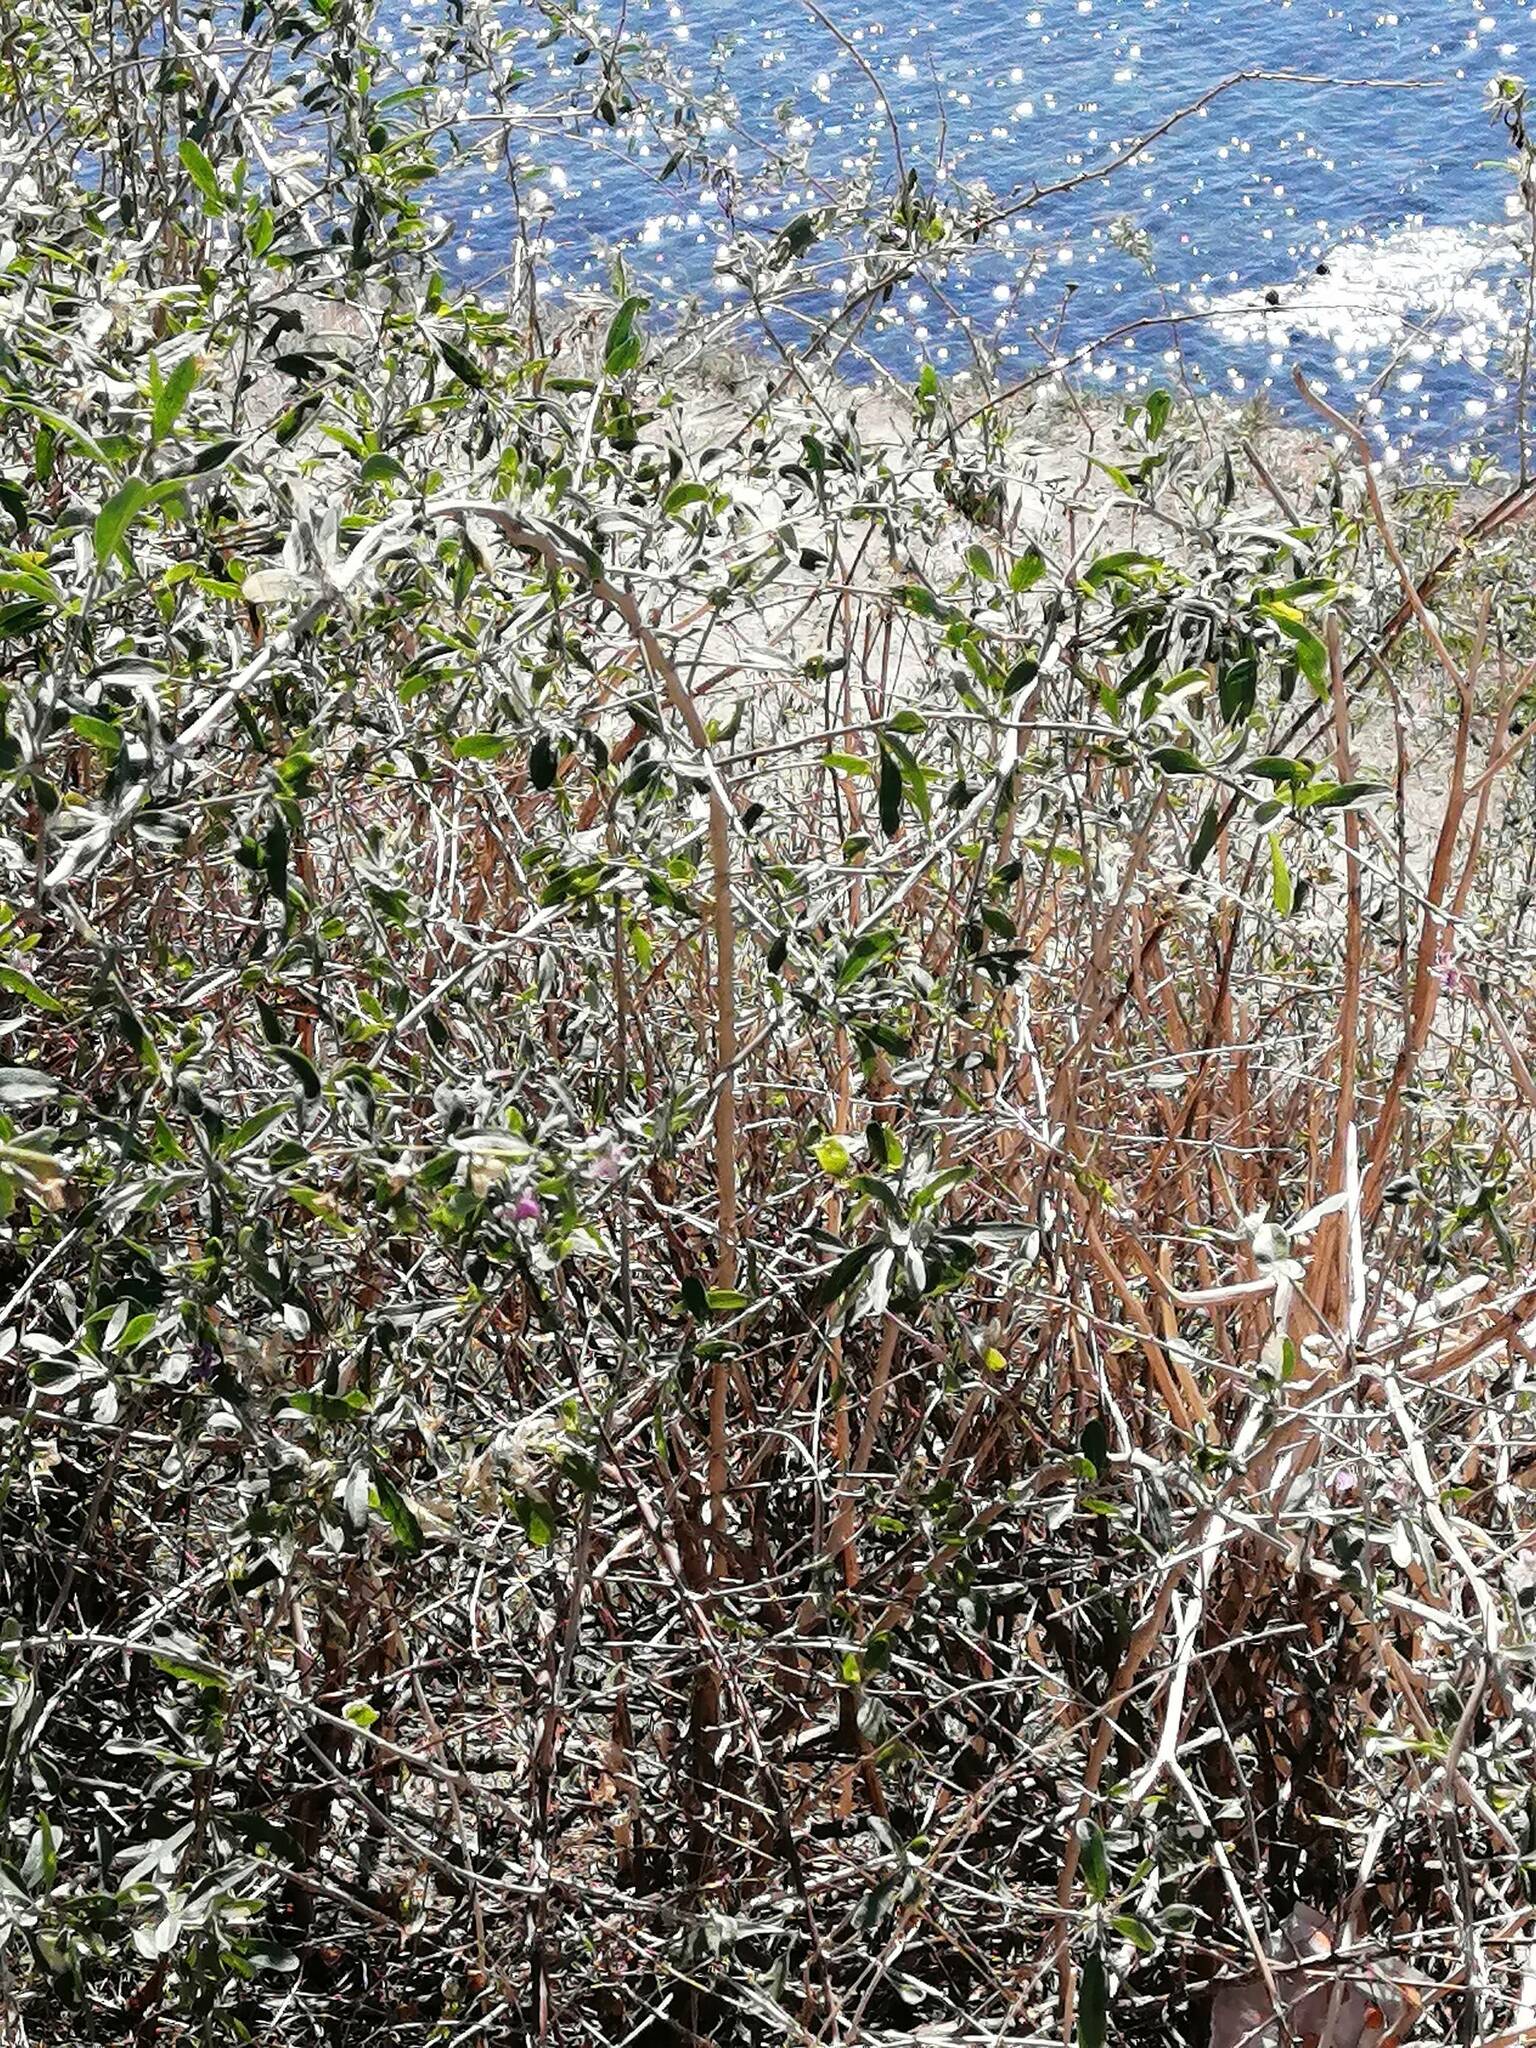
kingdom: Plantae
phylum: Tracheophyta
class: Magnoliopsida
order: Solanales
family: Solanaceae
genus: Lycium
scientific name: Lycium barbarum
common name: Duke of argyll's teaplant
